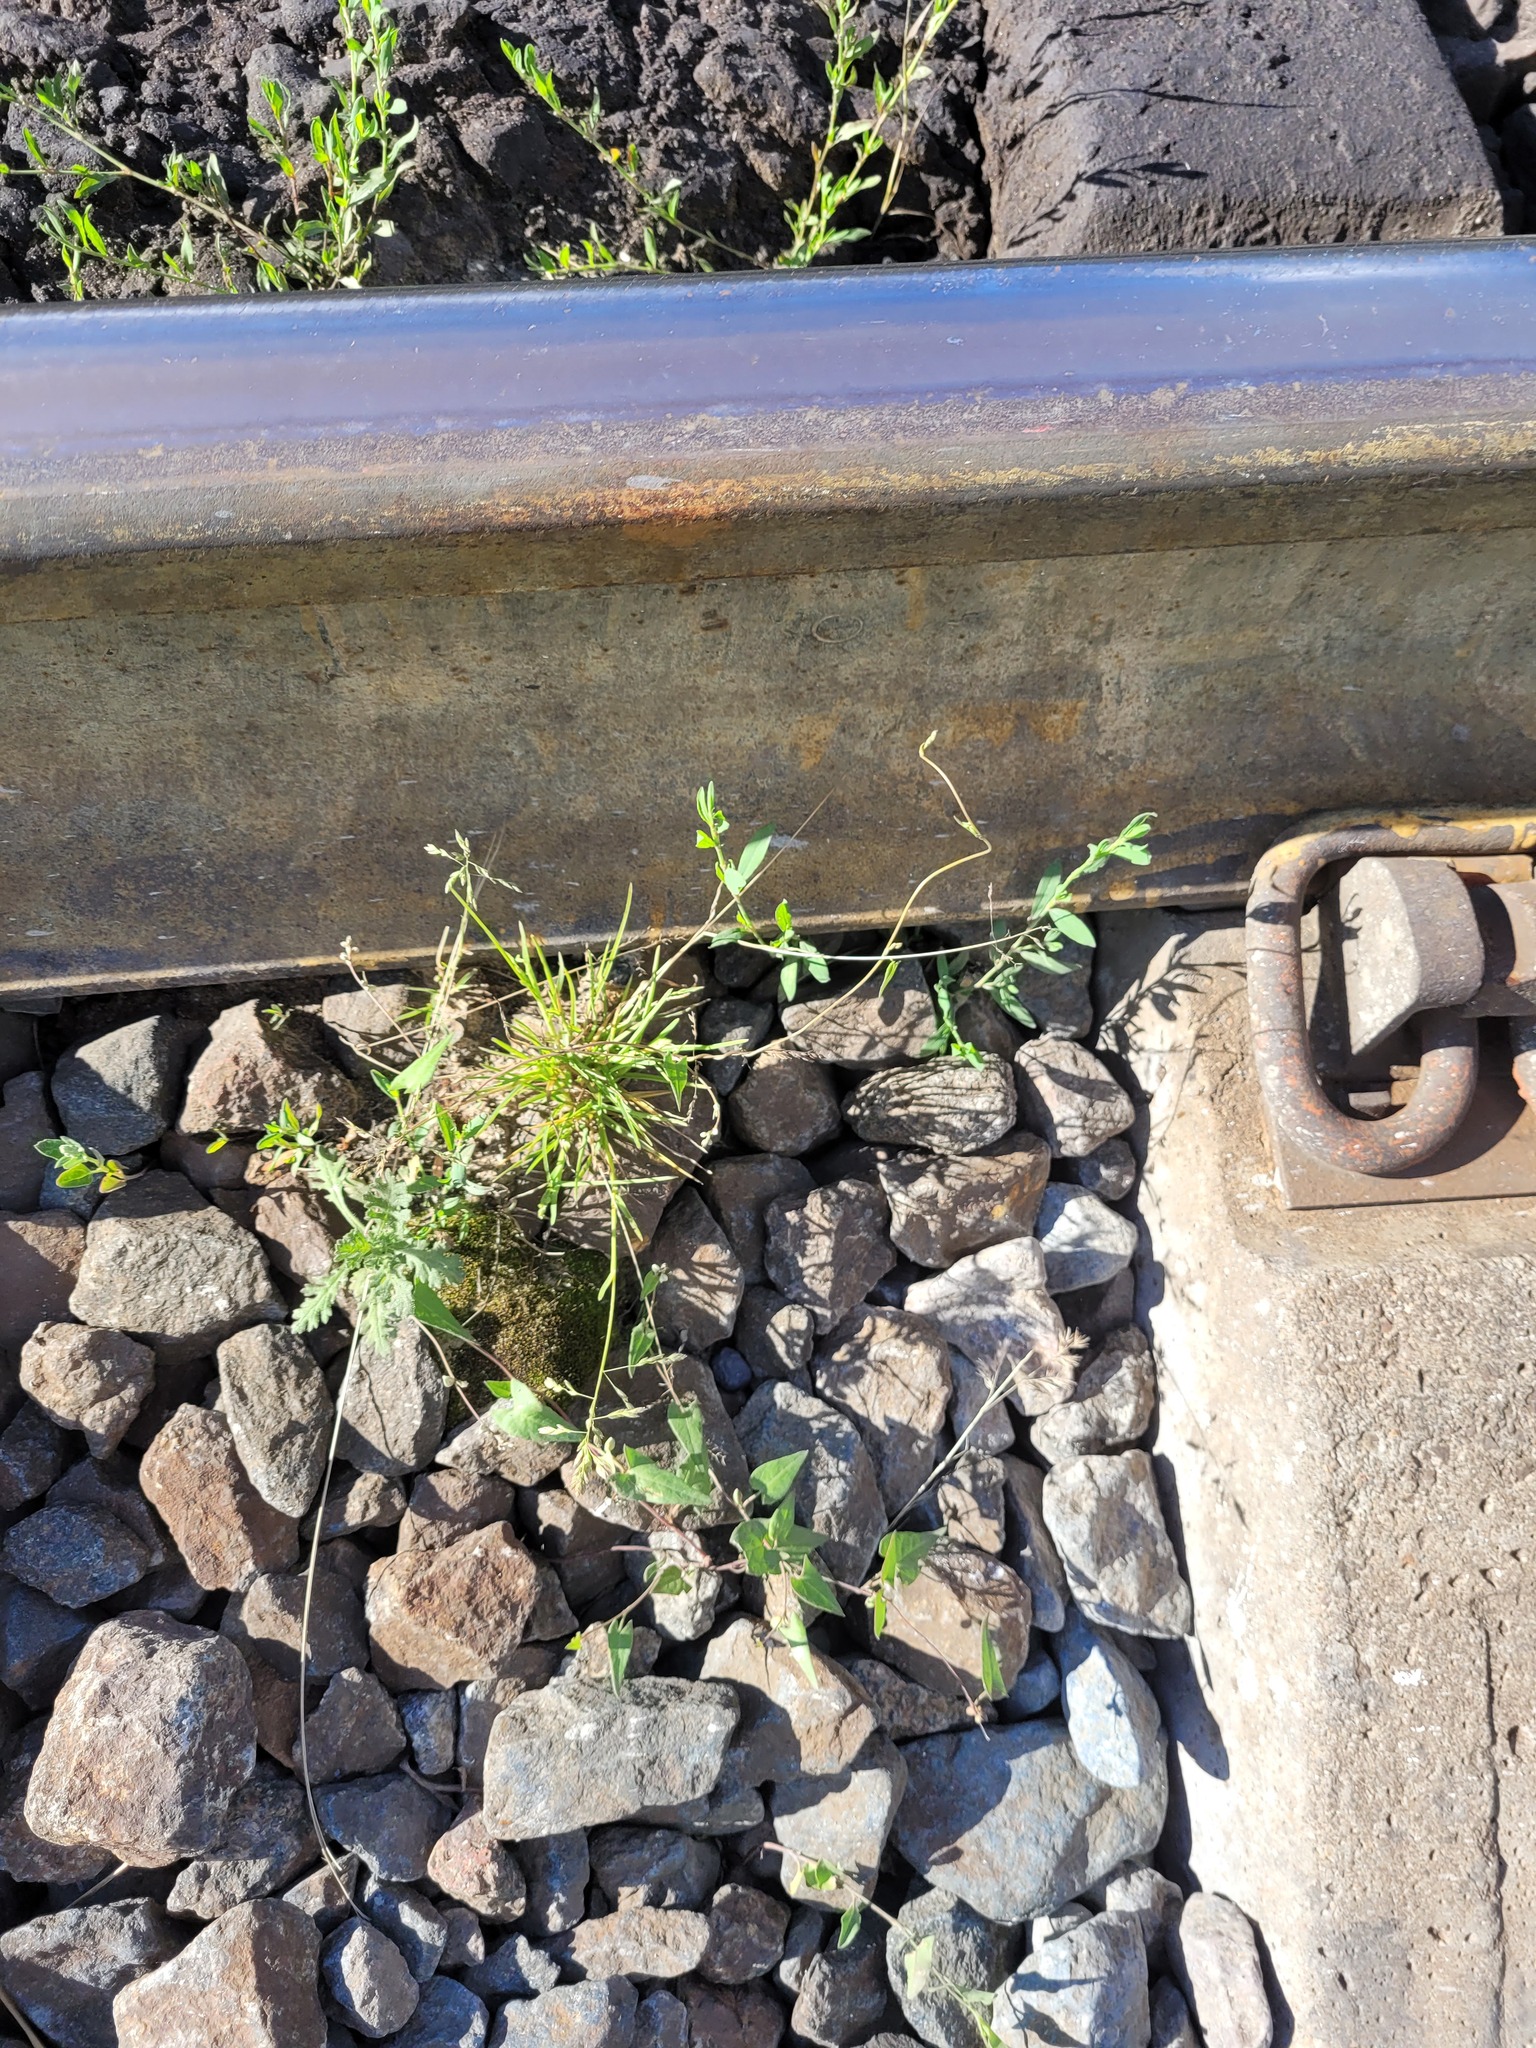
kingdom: Plantae
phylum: Tracheophyta
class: Liliopsida
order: Poales
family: Poaceae
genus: Poa
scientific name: Poa annua
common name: Annual bluegrass
